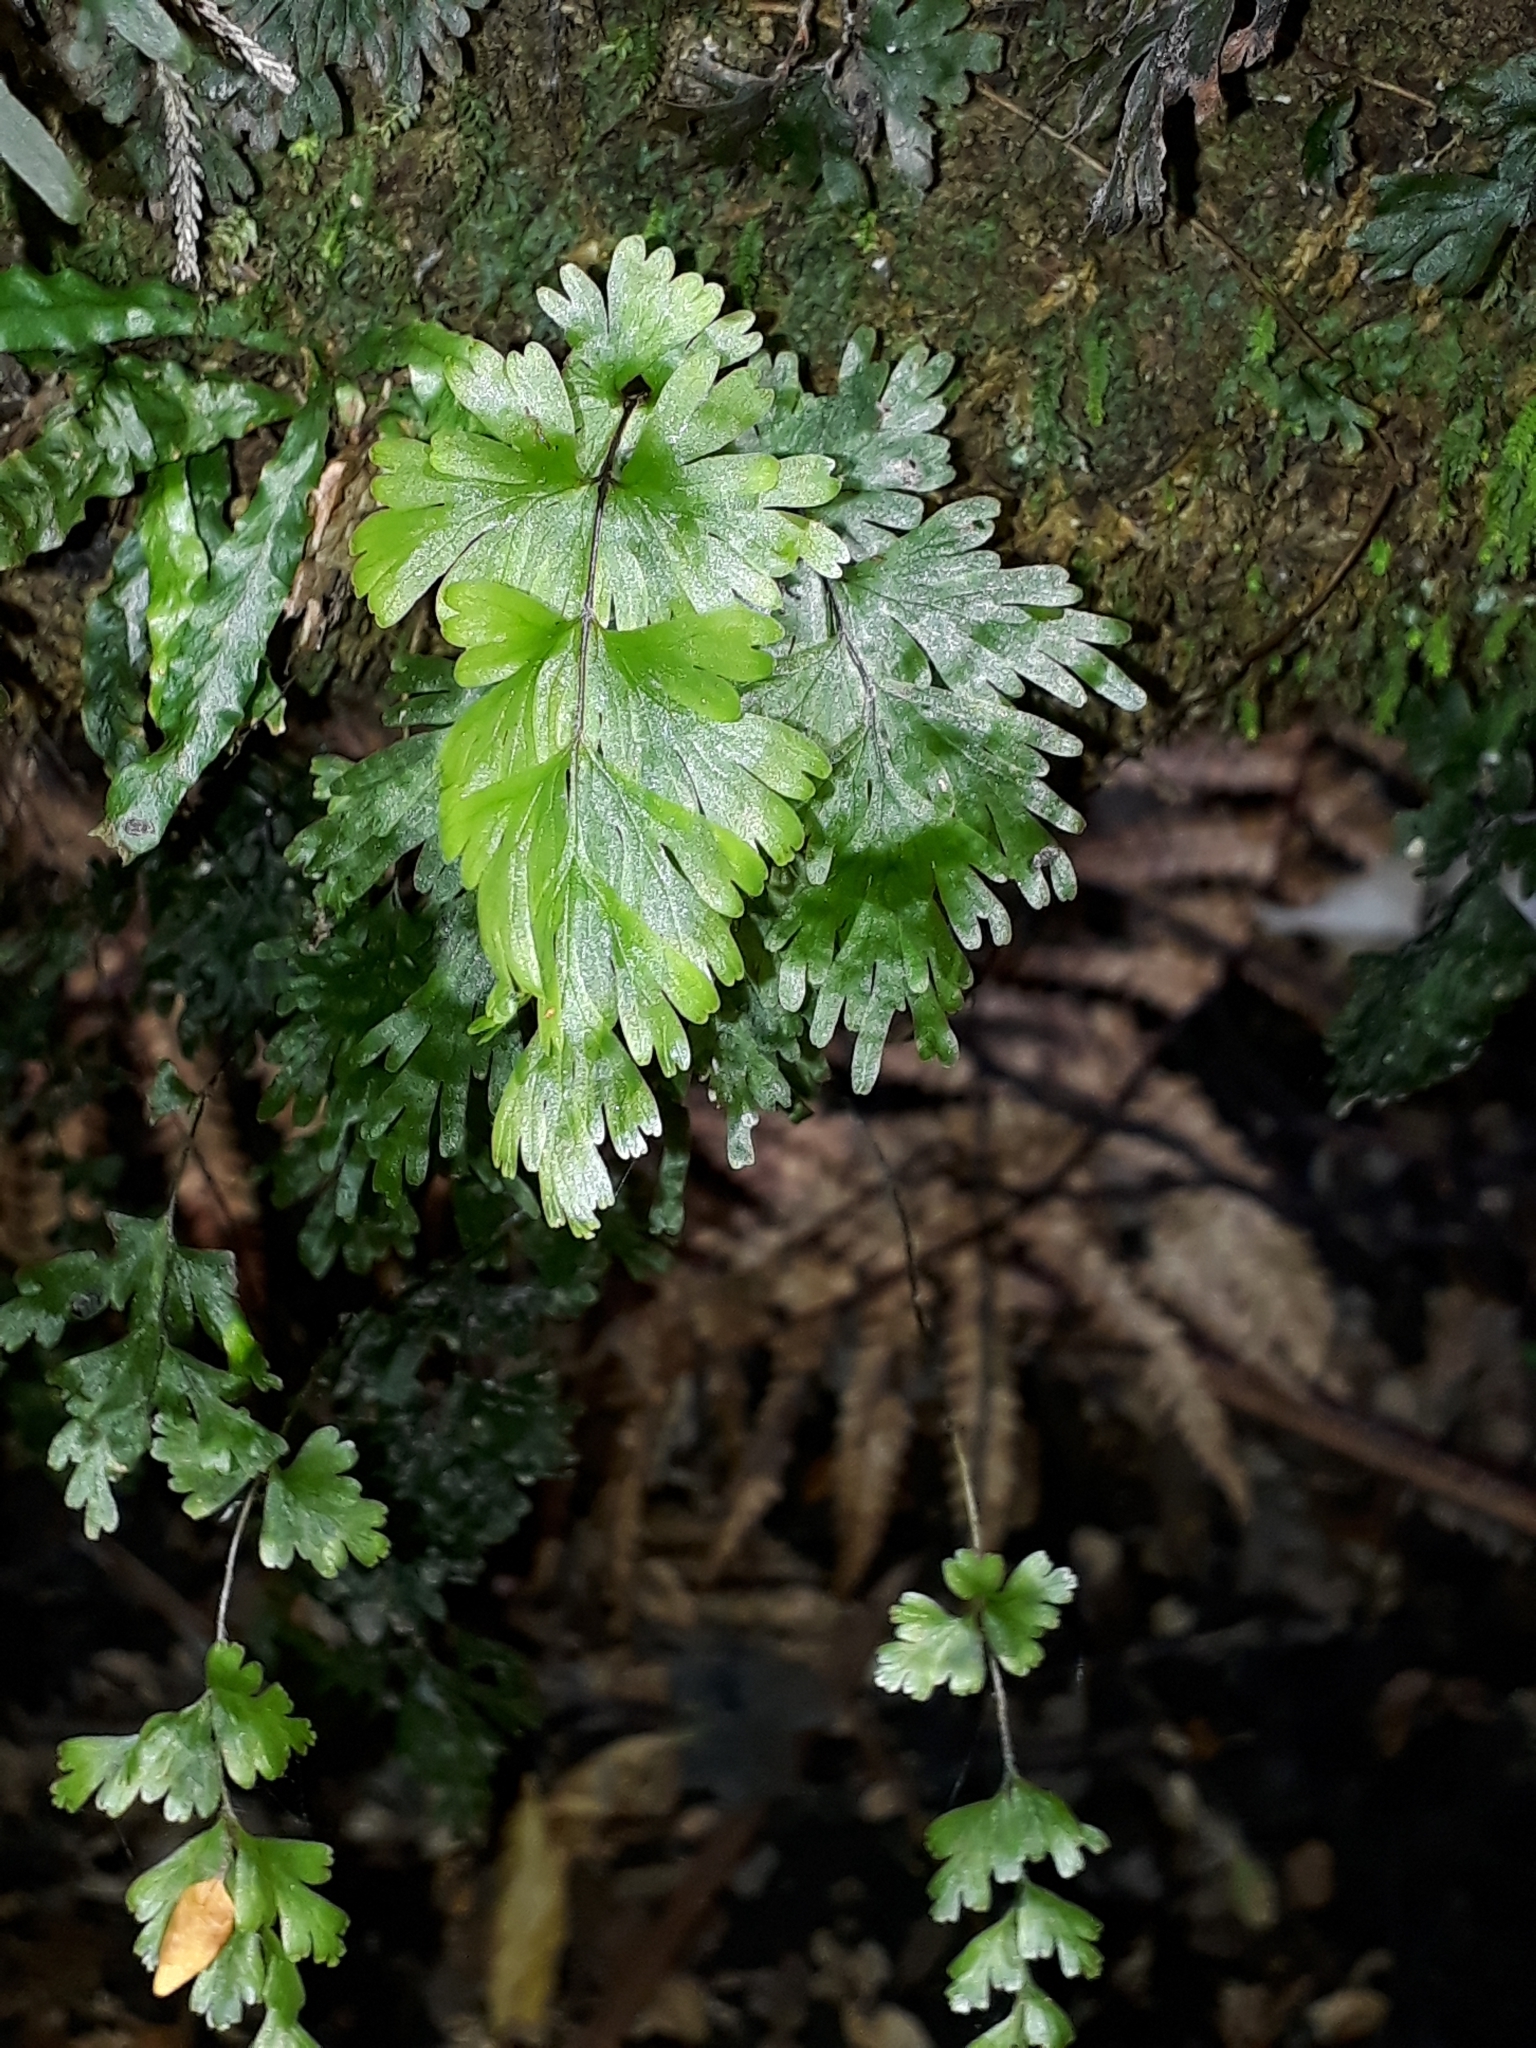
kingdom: Plantae
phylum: Tracheophyta
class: Polypodiopsida
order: Hymenophyllales
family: Hymenophyllaceae
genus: Hymenophyllum
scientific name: Hymenophyllum flabellatum
